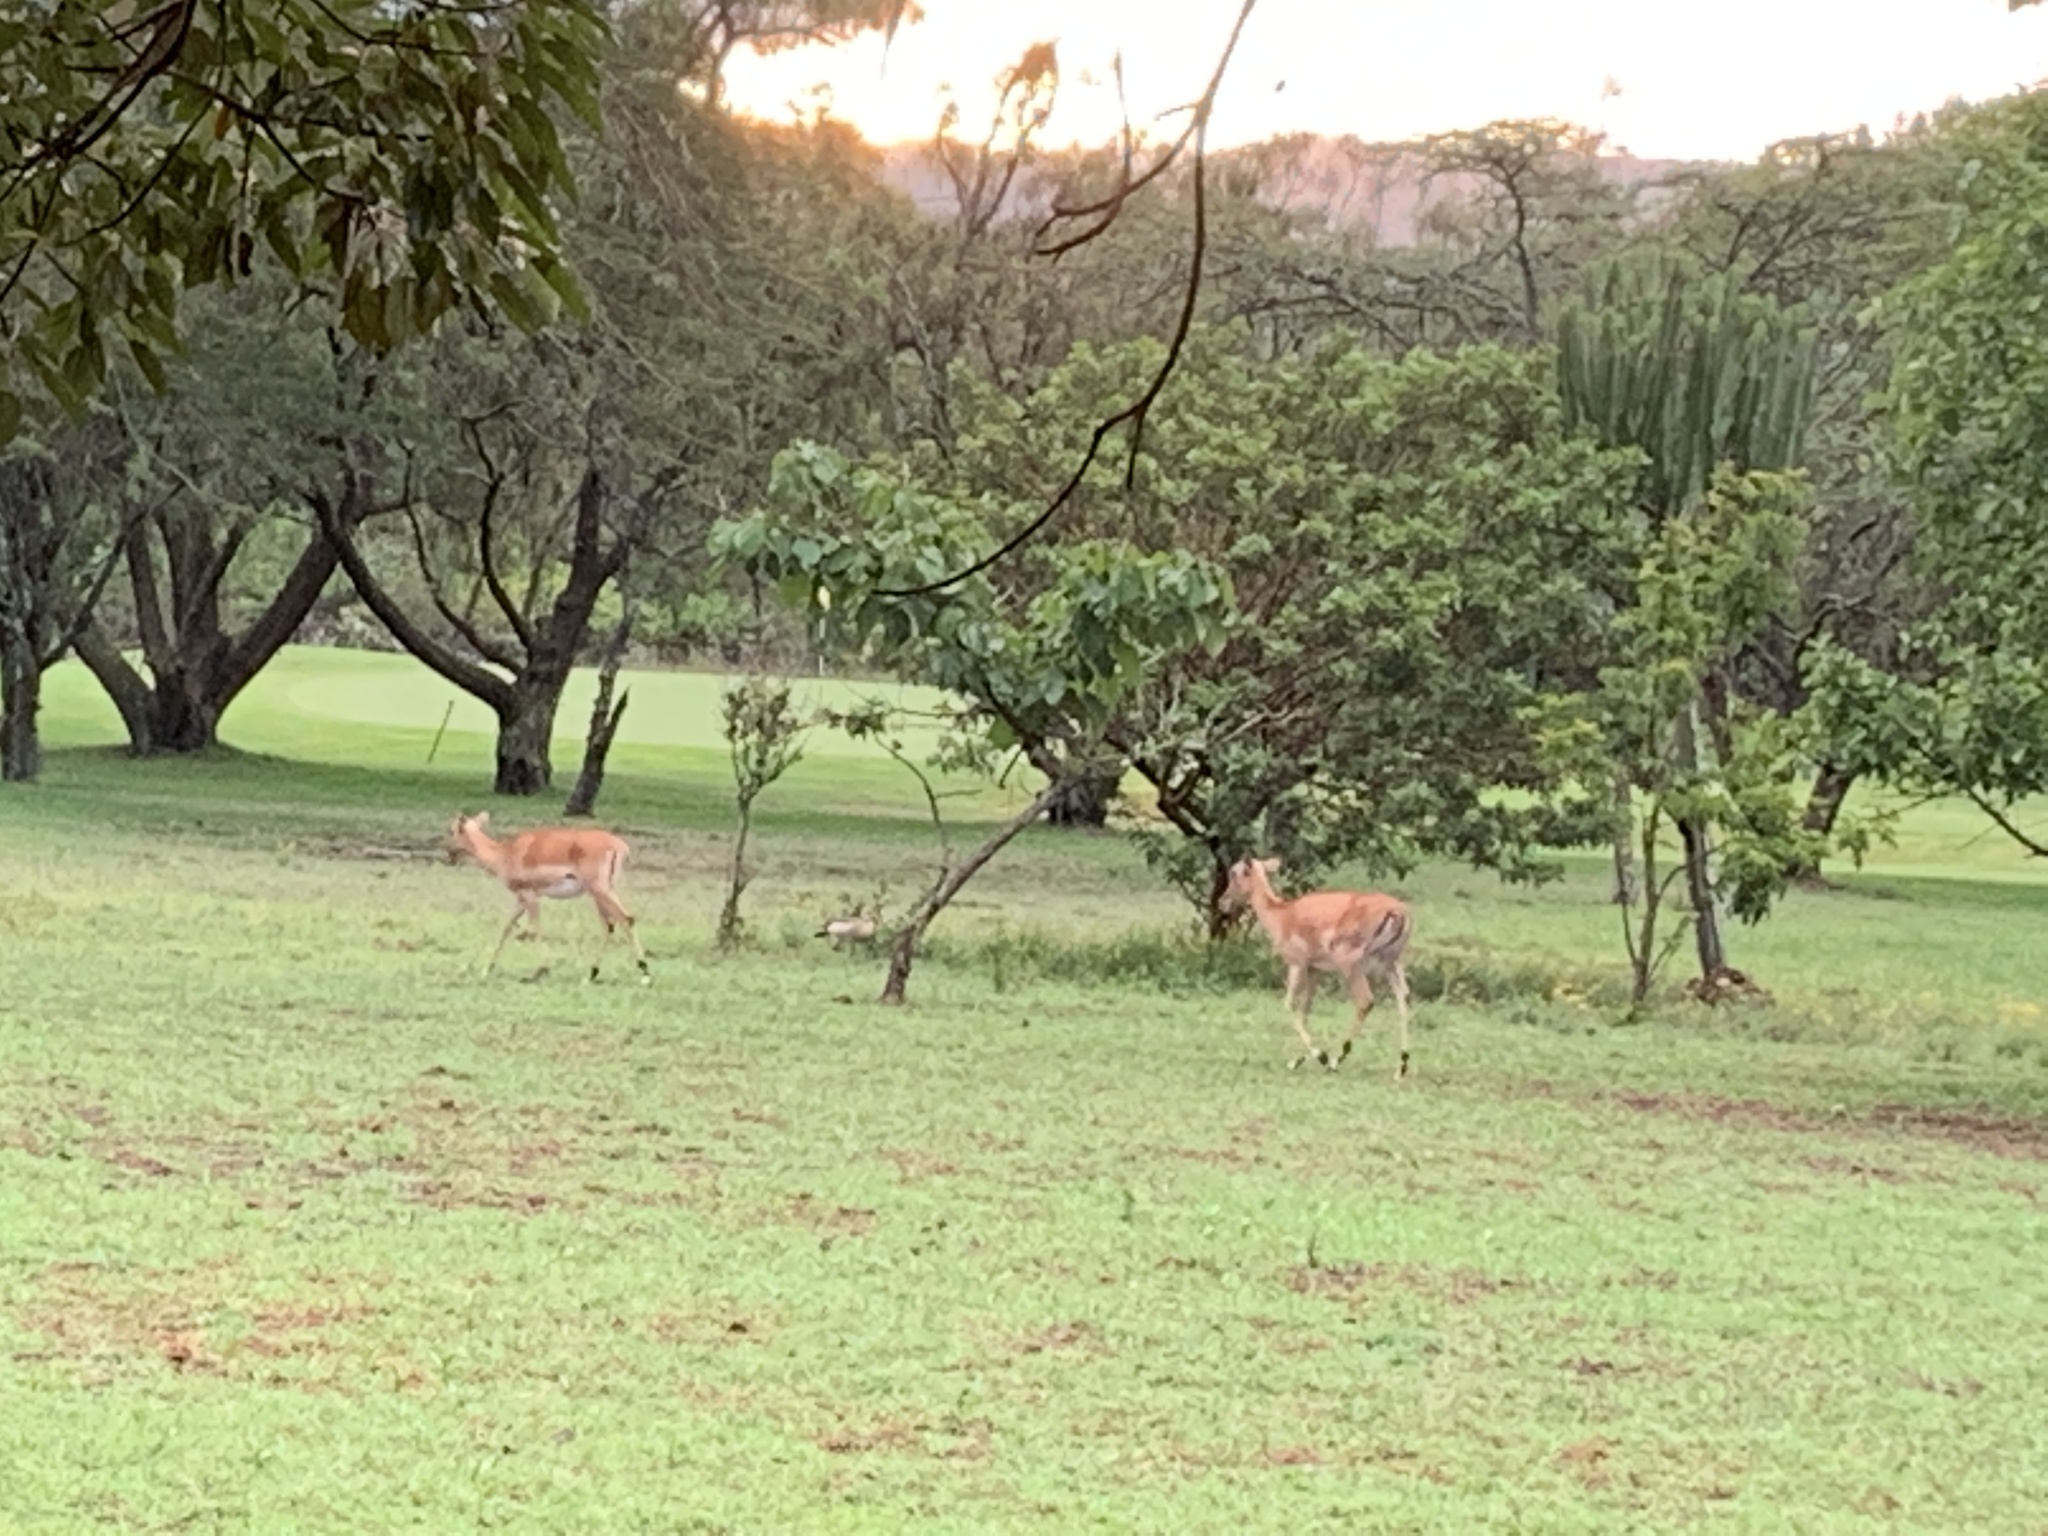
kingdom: Animalia
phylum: Chordata
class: Mammalia
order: Artiodactyla
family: Bovidae
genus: Aepyceros
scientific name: Aepyceros melampus
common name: Impala
